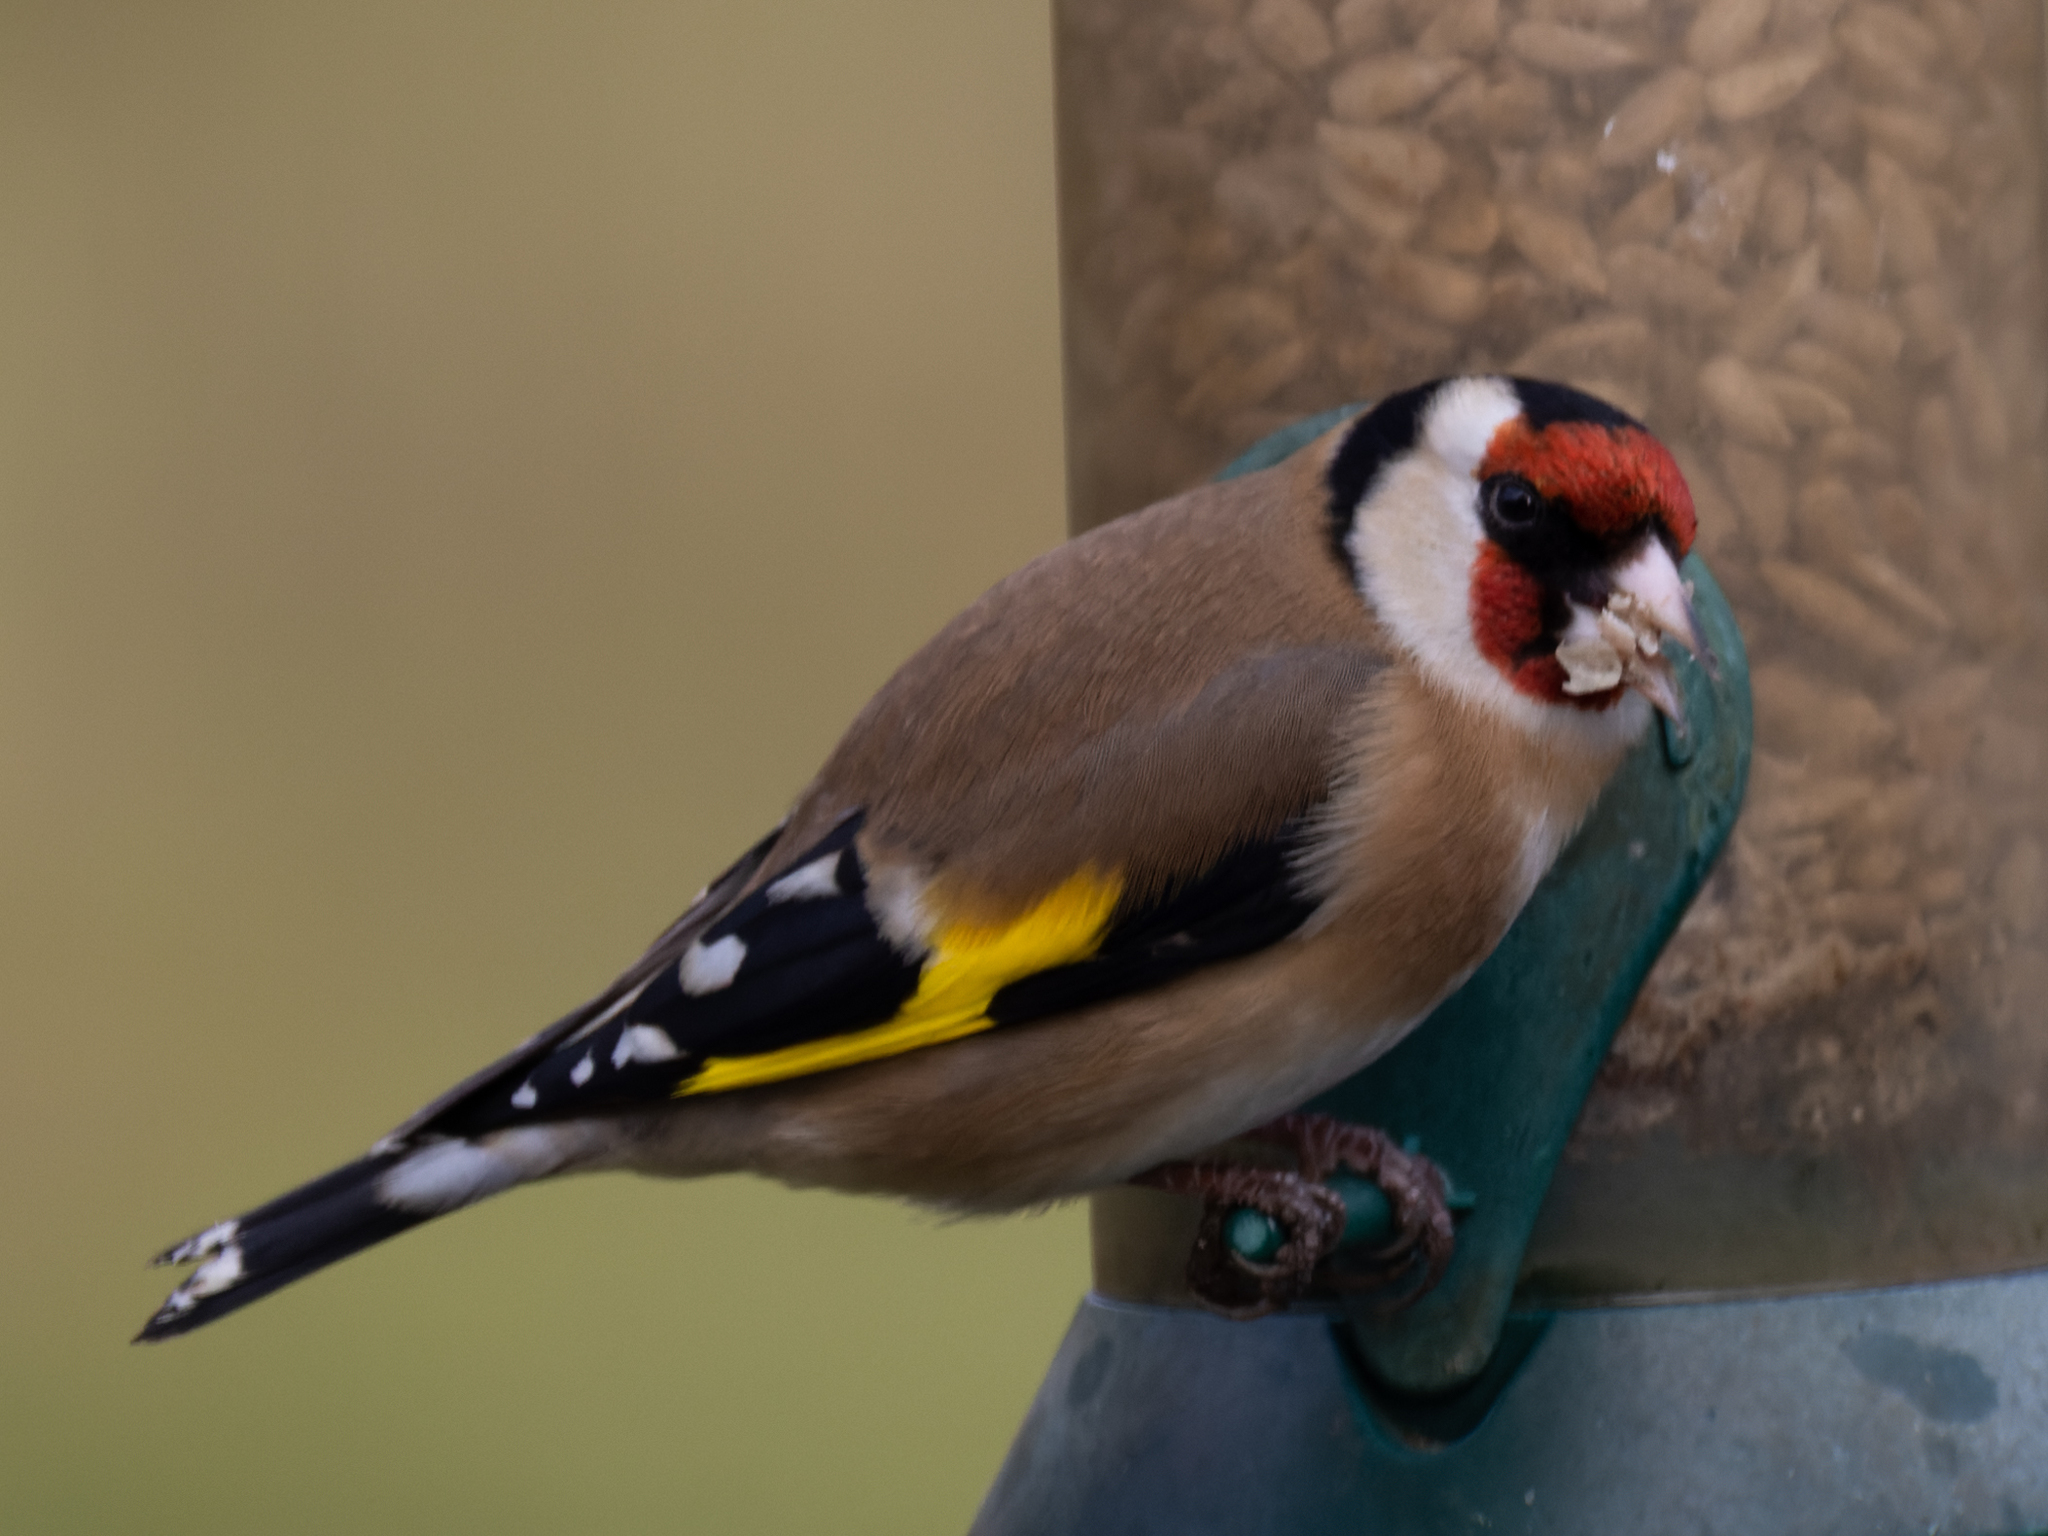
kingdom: Animalia
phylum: Chordata
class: Aves
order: Passeriformes
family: Fringillidae
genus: Carduelis
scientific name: Carduelis carduelis
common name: European goldfinch
